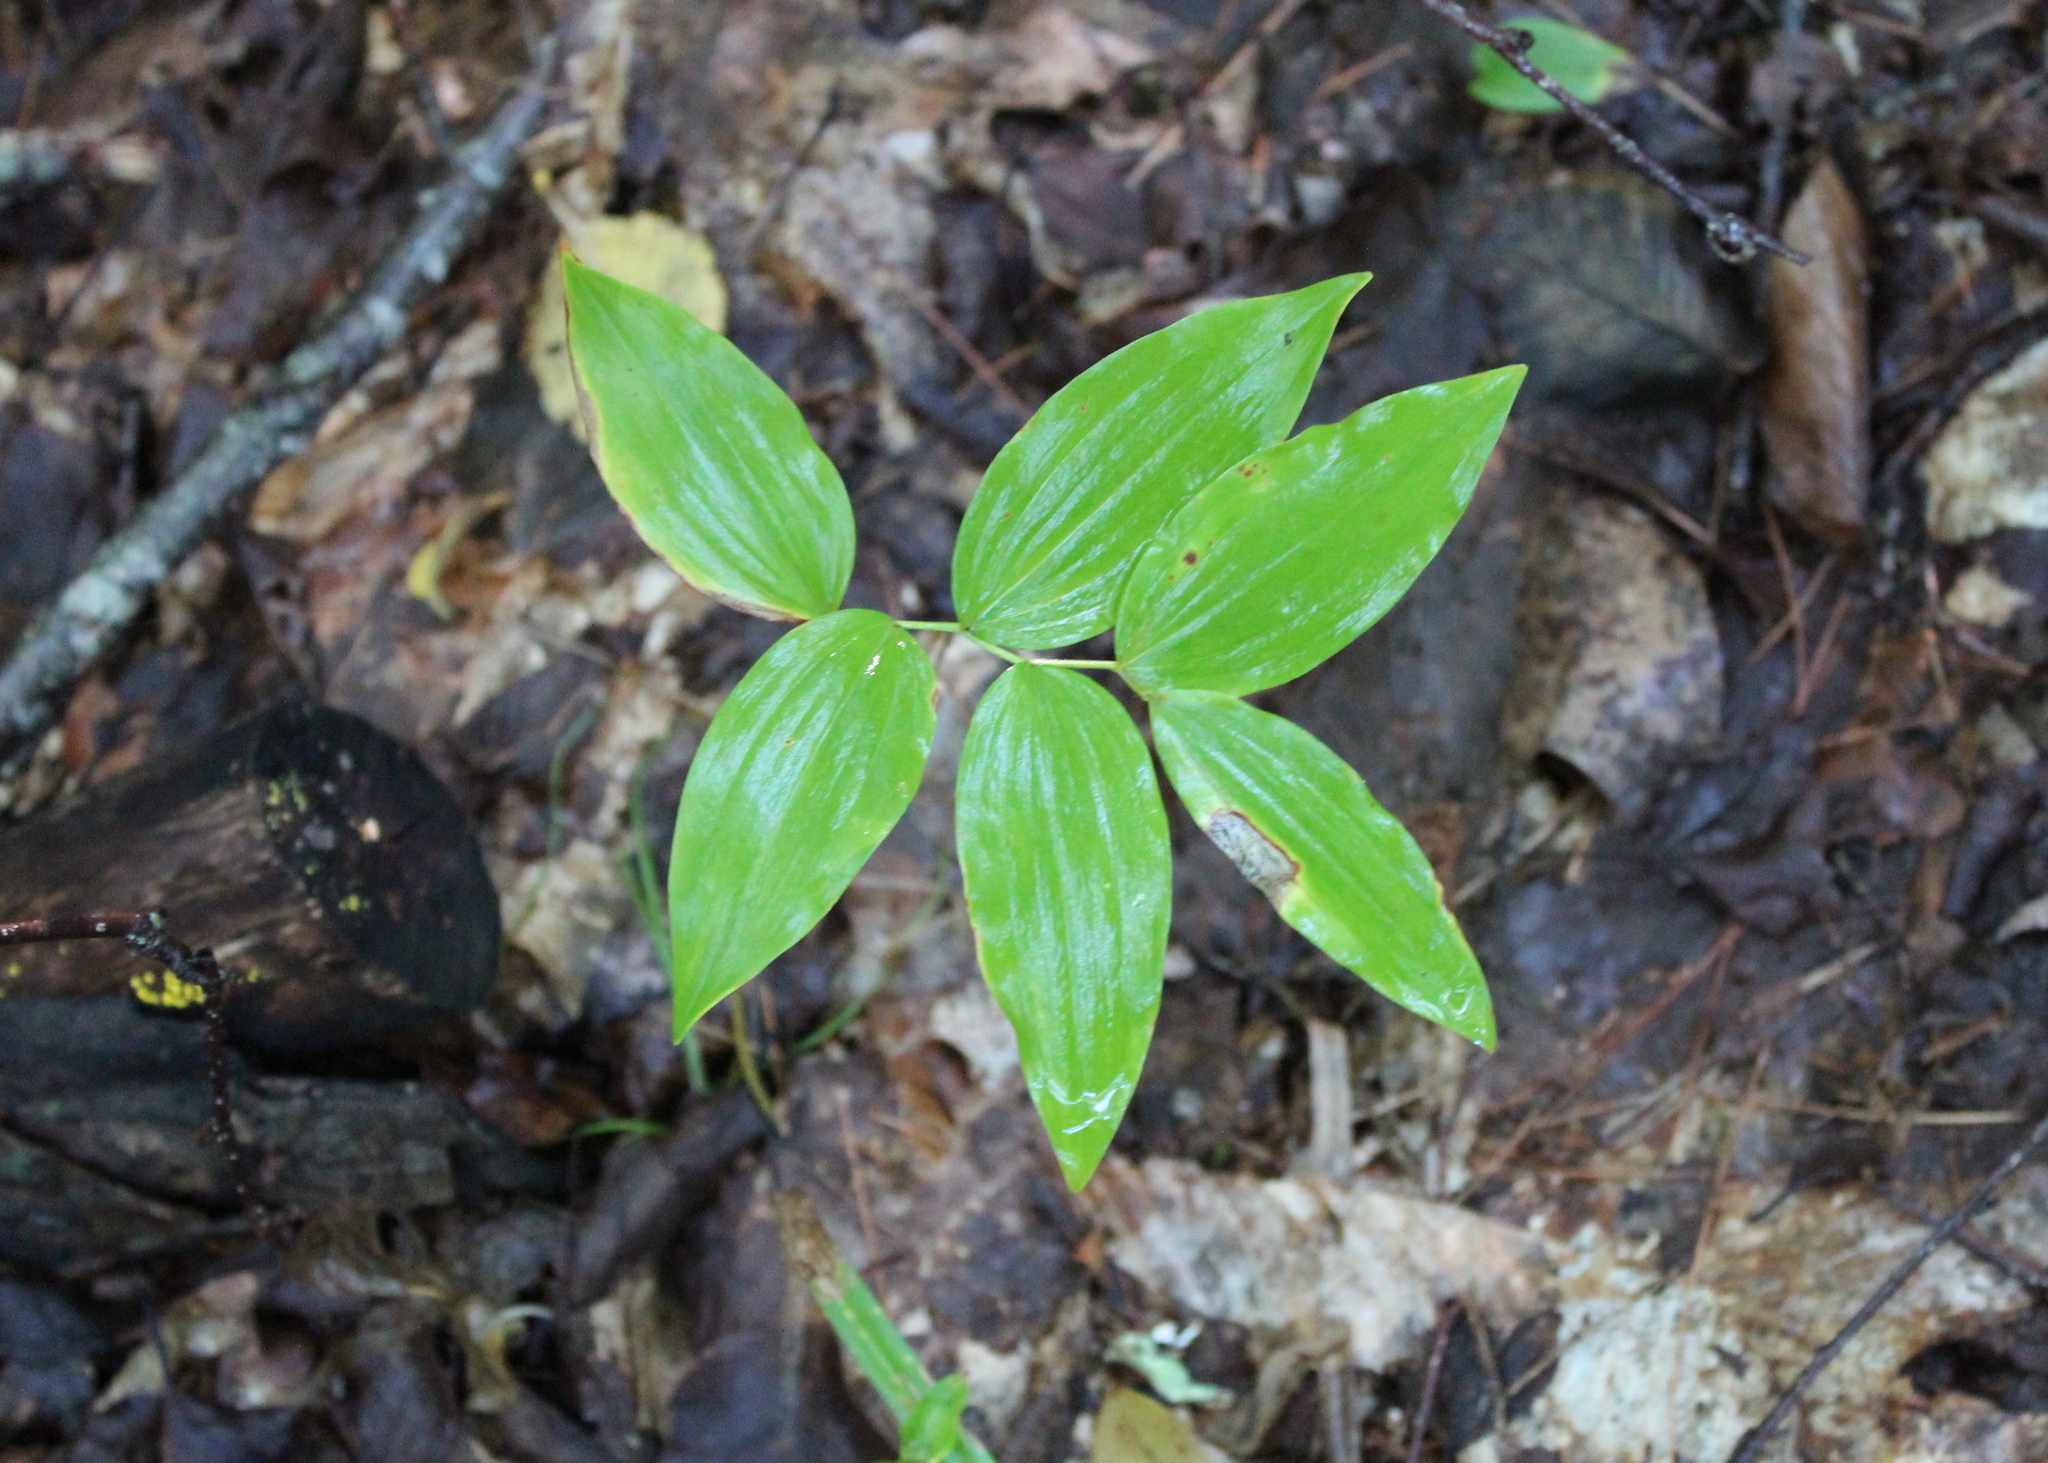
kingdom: Plantae
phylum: Tracheophyta
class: Liliopsida
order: Asparagales
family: Asparagaceae
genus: Polygonatum
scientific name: Polygonatum pubescens
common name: Downy solomon's seal
